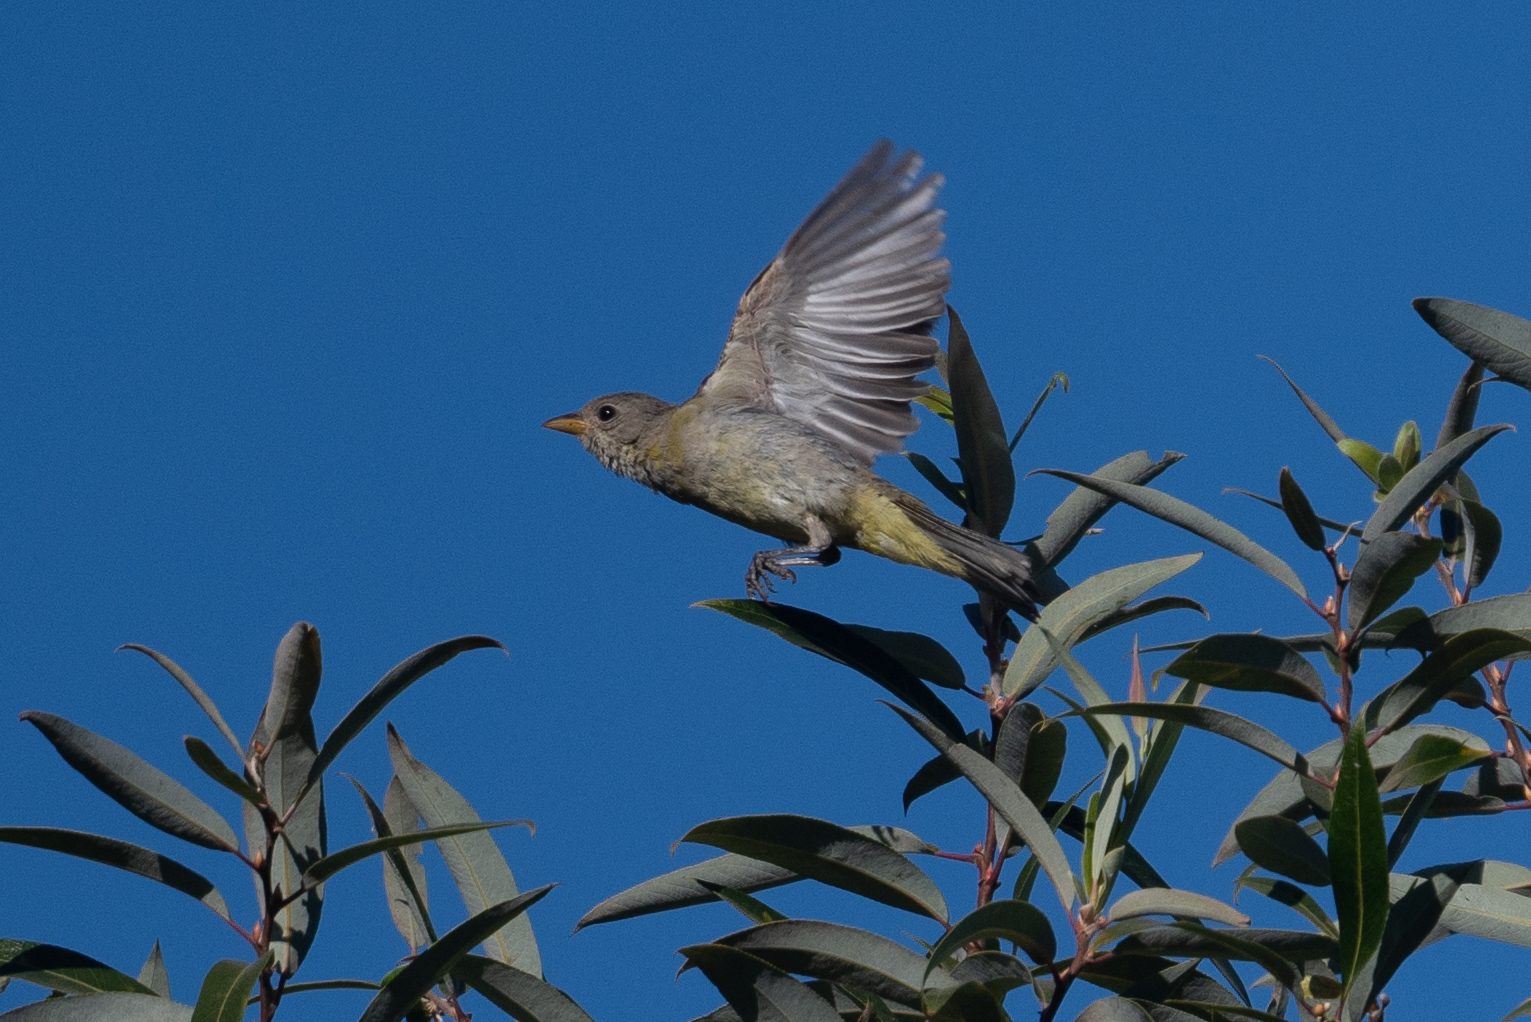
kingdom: Animalia
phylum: Chordata
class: Aves
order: Passeriformes
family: Cardinalidae
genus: Piranga
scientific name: Piranga ludoviciana
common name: Western tanager
